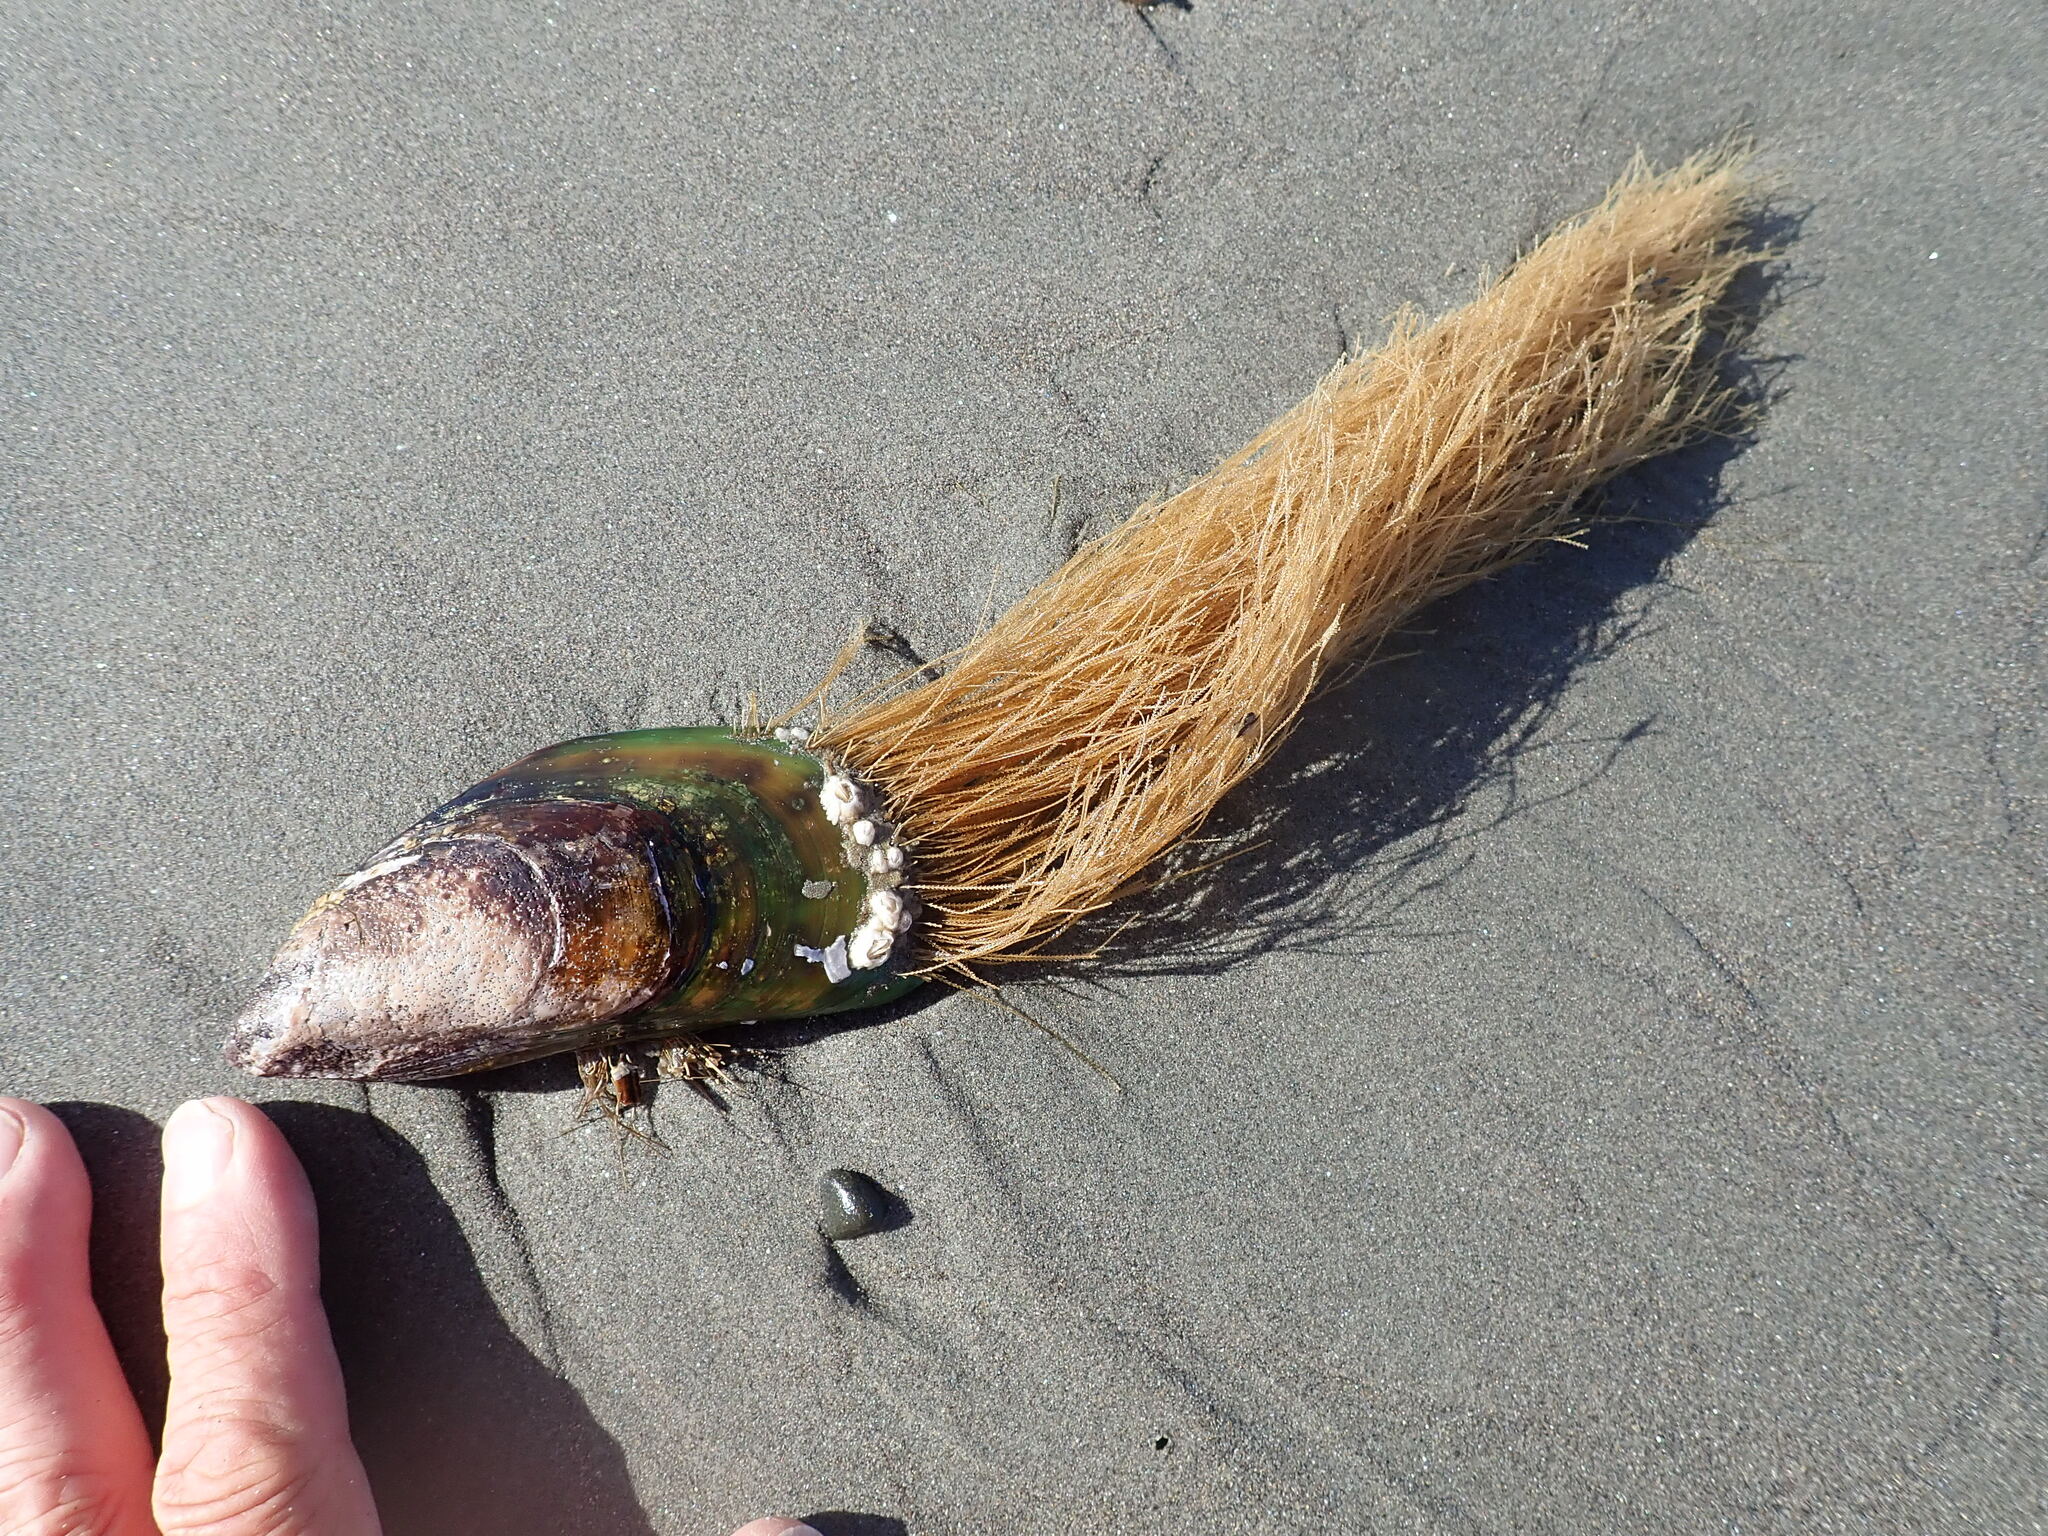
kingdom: Animalia
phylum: Mollusca
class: Bivalvia
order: Mytilida
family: Mytilidae
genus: Perna
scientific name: Perna canaliculus
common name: New zealand greenshelltm
